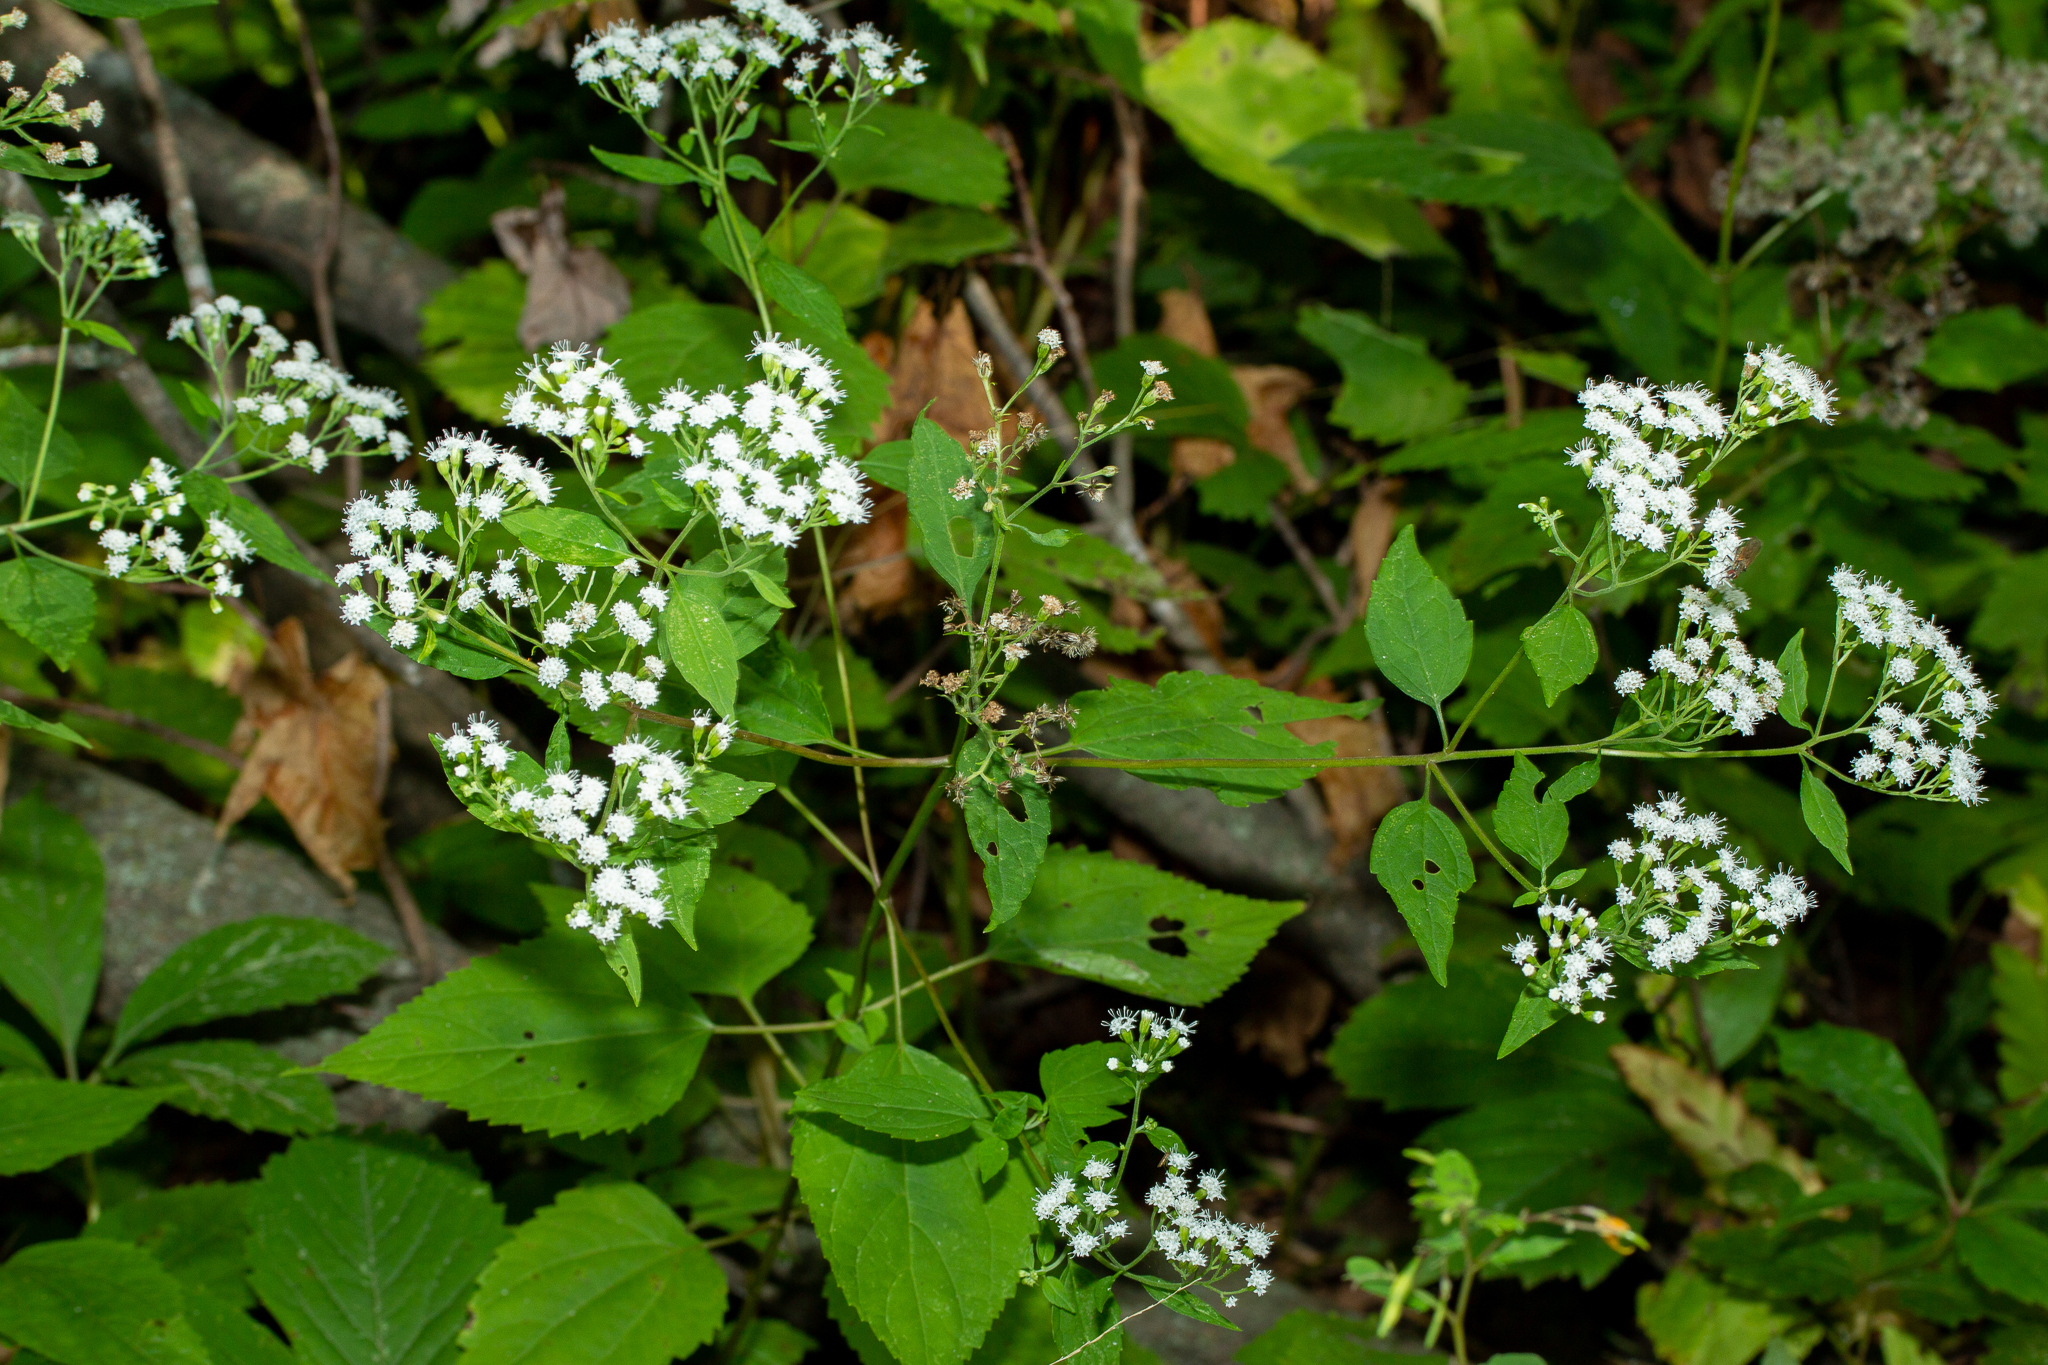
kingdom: Plantae
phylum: Tracheophyta
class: Magnoliopsida
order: Asterales
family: Asteraceae
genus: Ageratina
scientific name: Ageratina altissima
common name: White snakeroot
